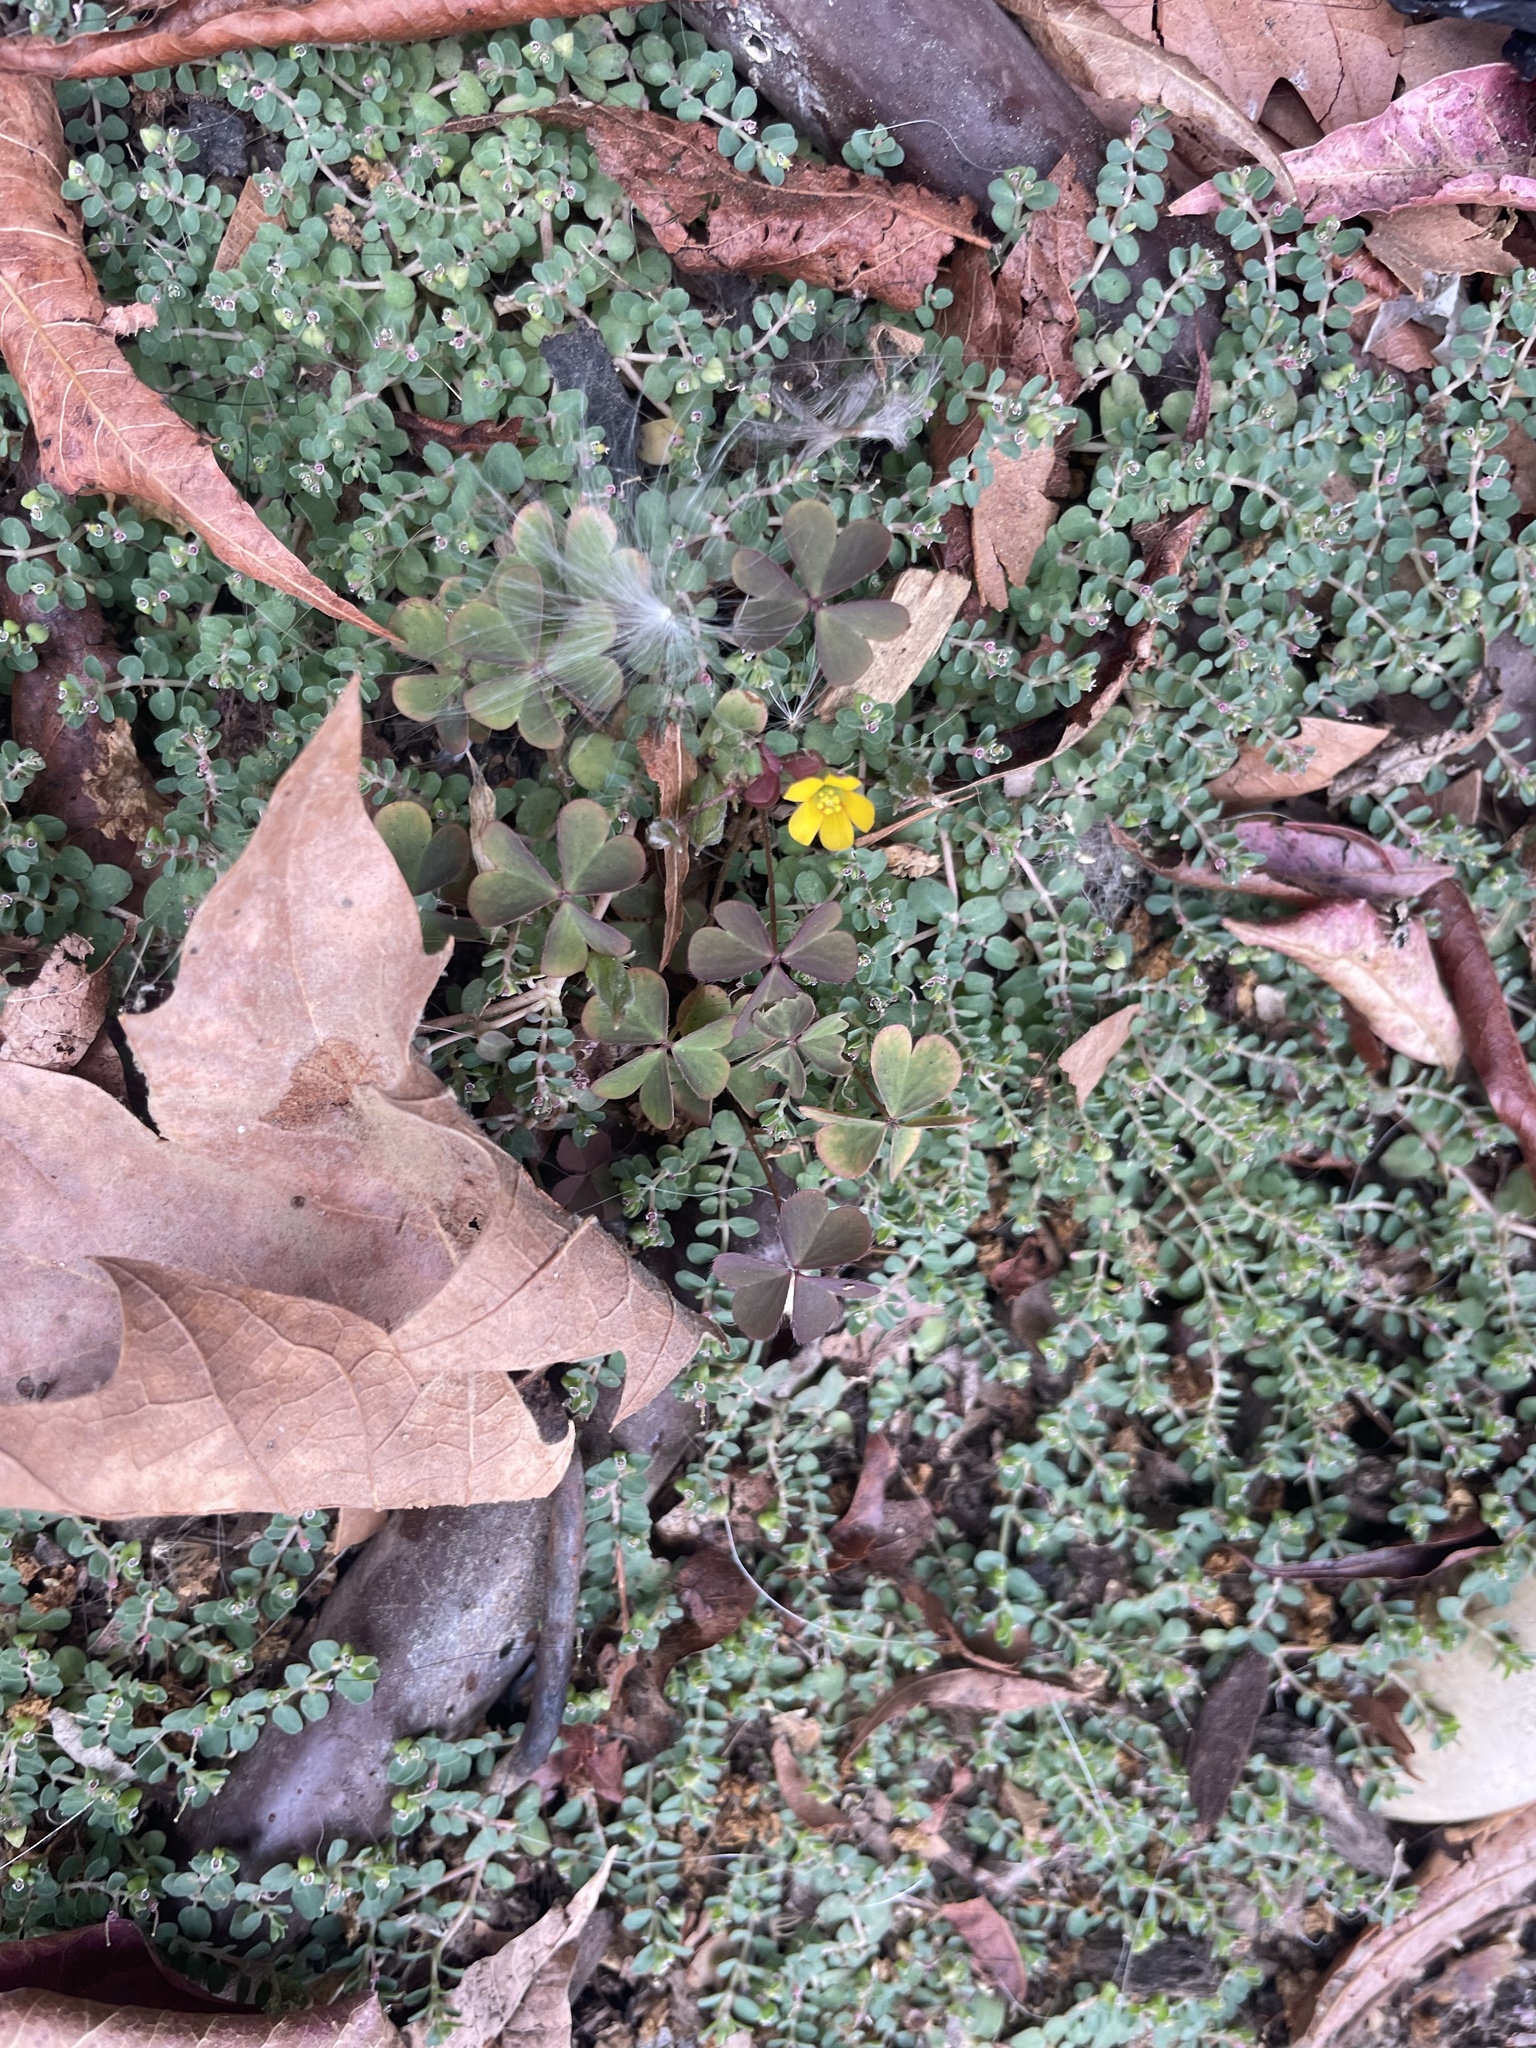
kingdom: Plantae
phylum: Tracheophyta
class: Magnoliopsida
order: Oxalidales
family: Oxalidaceae
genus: Oxalis
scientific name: Oxalis corniculata
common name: Procumbent yellow-sorrel
